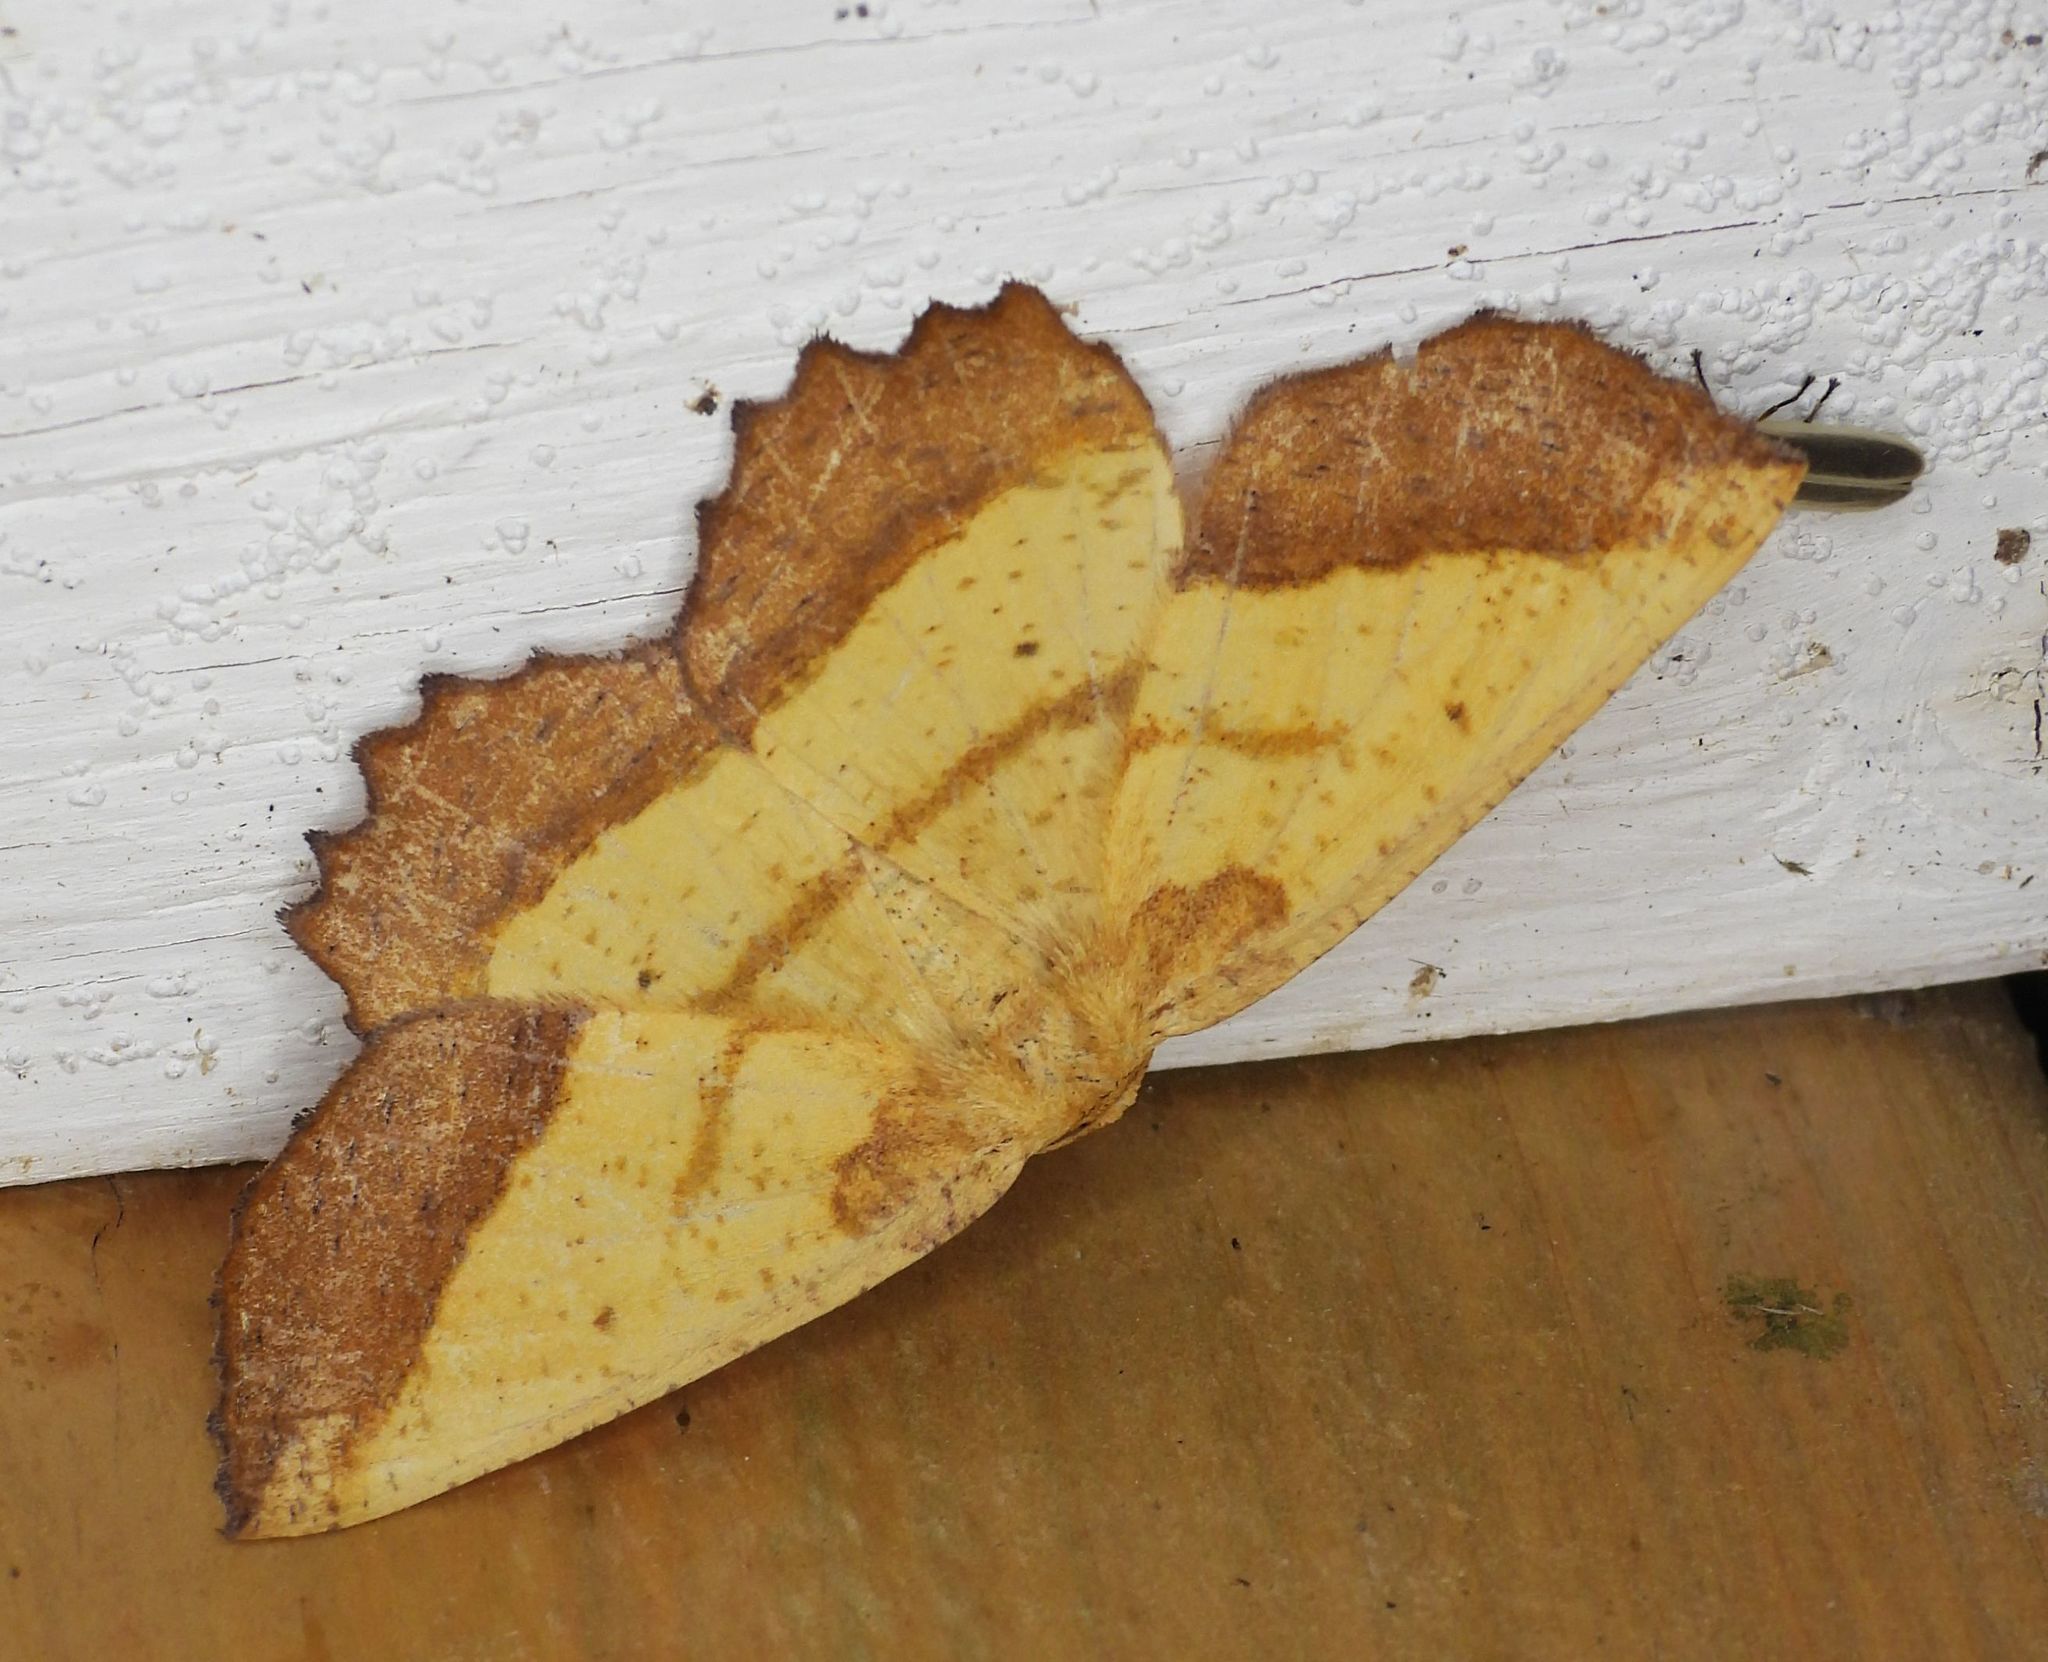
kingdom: Animalia
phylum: Arthropoda
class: Insecta
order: Lepidoptera
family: Geometridae
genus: Euchlaena
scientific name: Euchlaena serrata
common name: Saw wing
